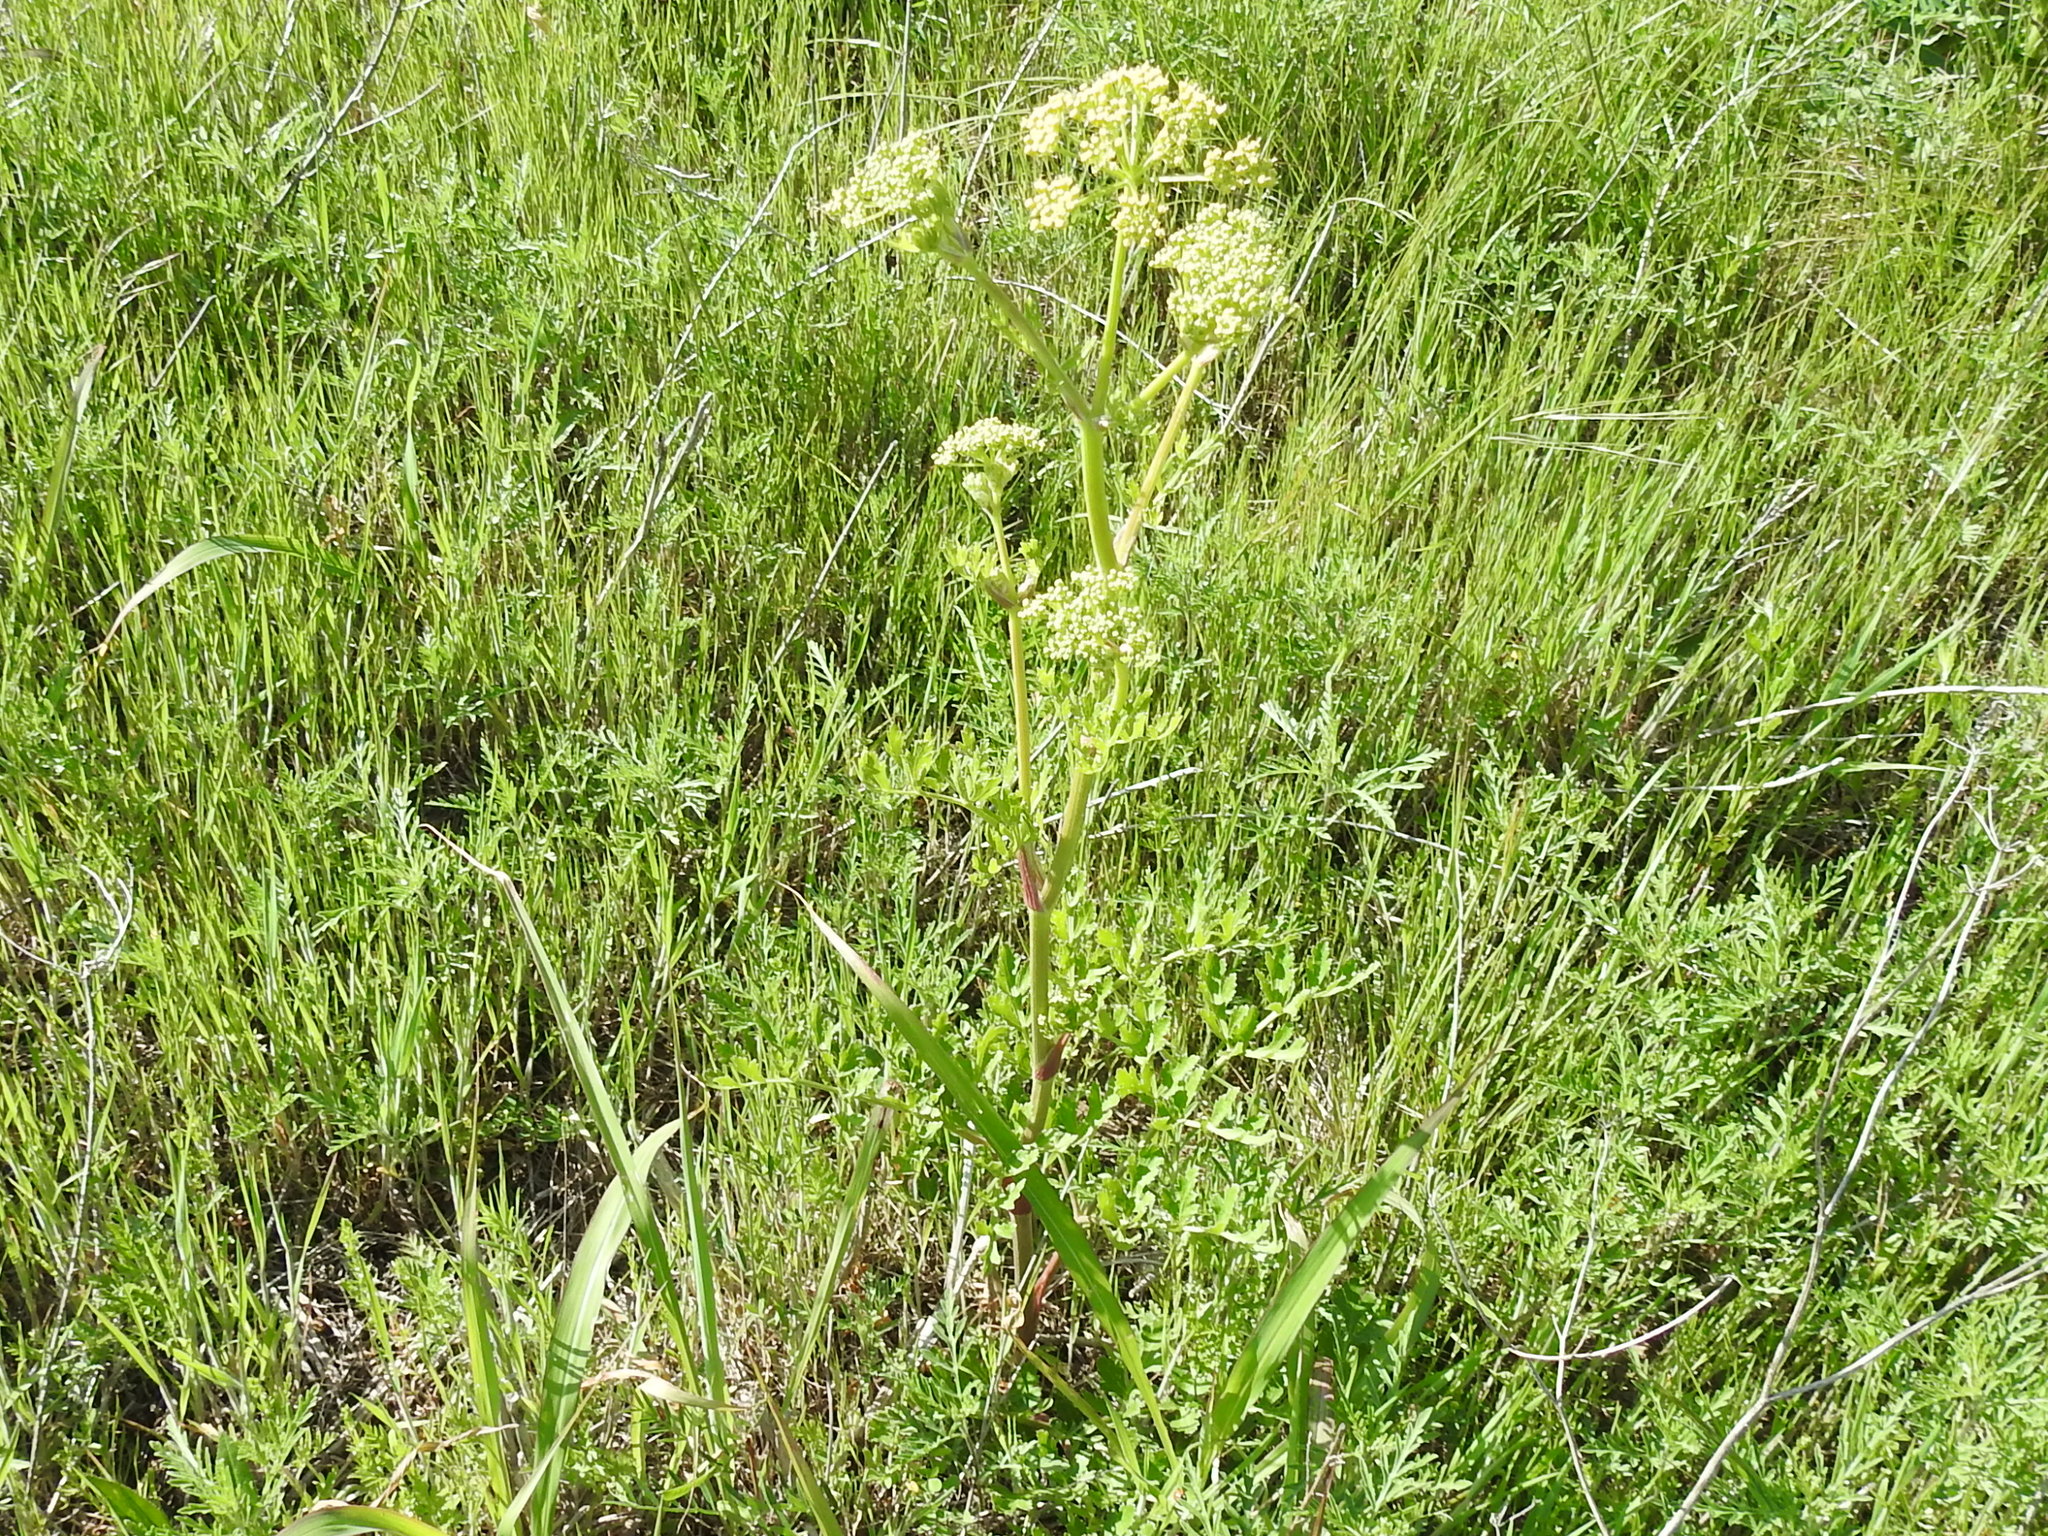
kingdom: Plantae
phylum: Tracheophyta
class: Magnoliopsida
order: Apiales
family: Apiaceae
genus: Polytaenia
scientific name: Polytaenia texana
